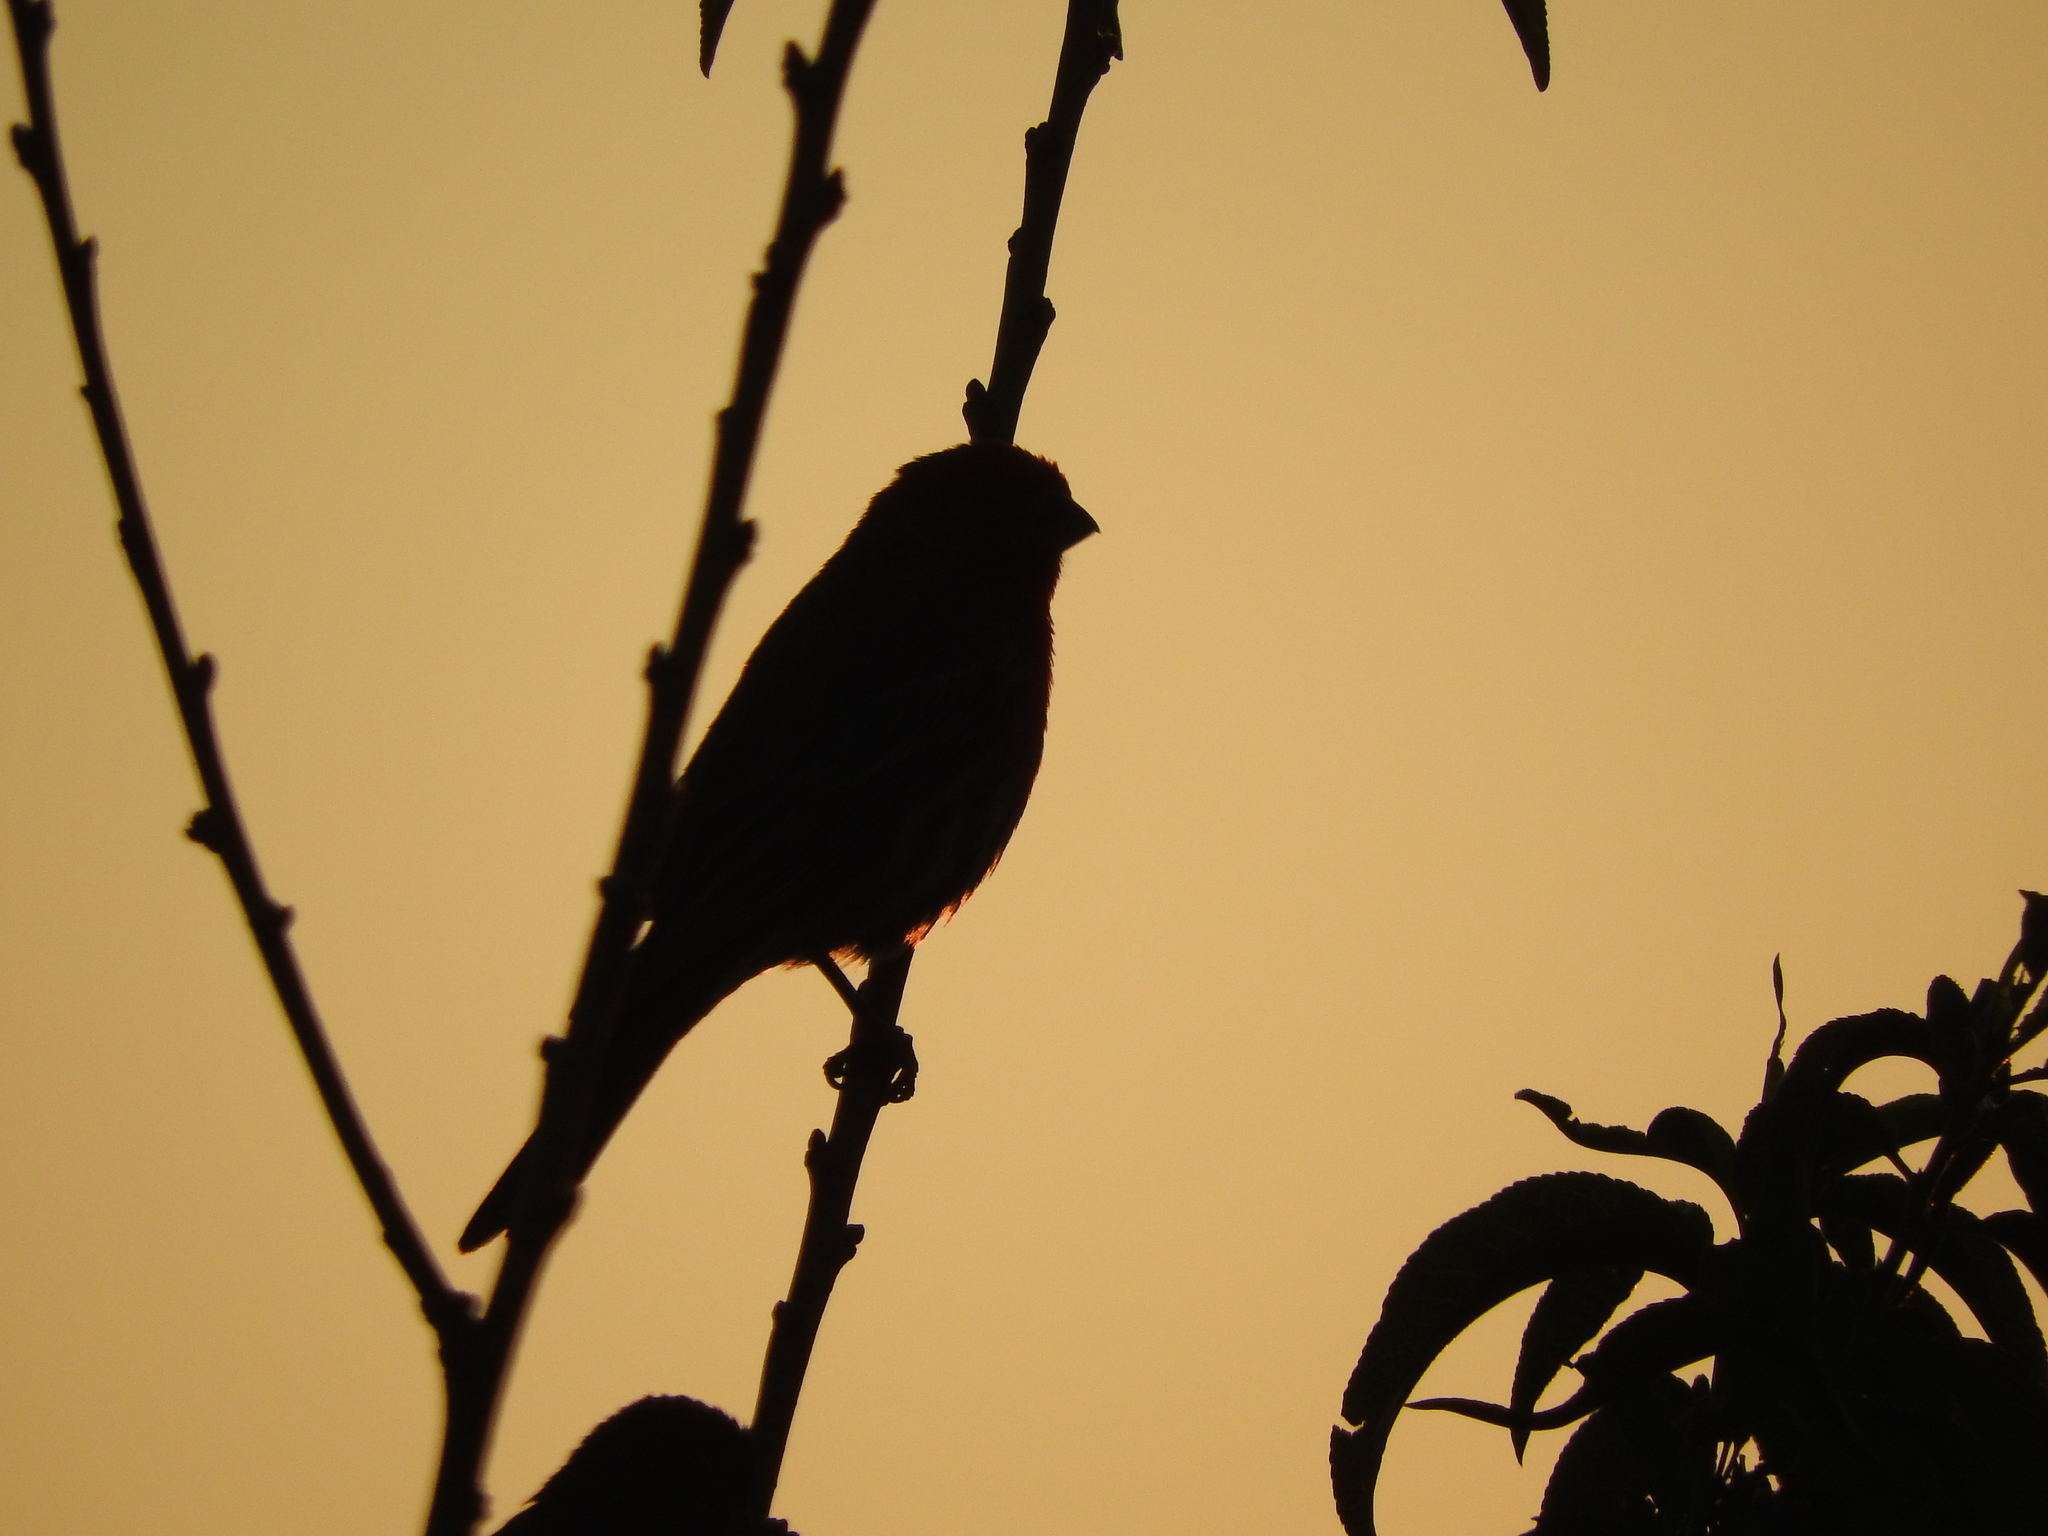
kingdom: Animalia
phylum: Chordata
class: Aves
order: Passeriformes
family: Fringillidae
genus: Haemorhous
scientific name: Haemorhous mexicanus
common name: House finch
